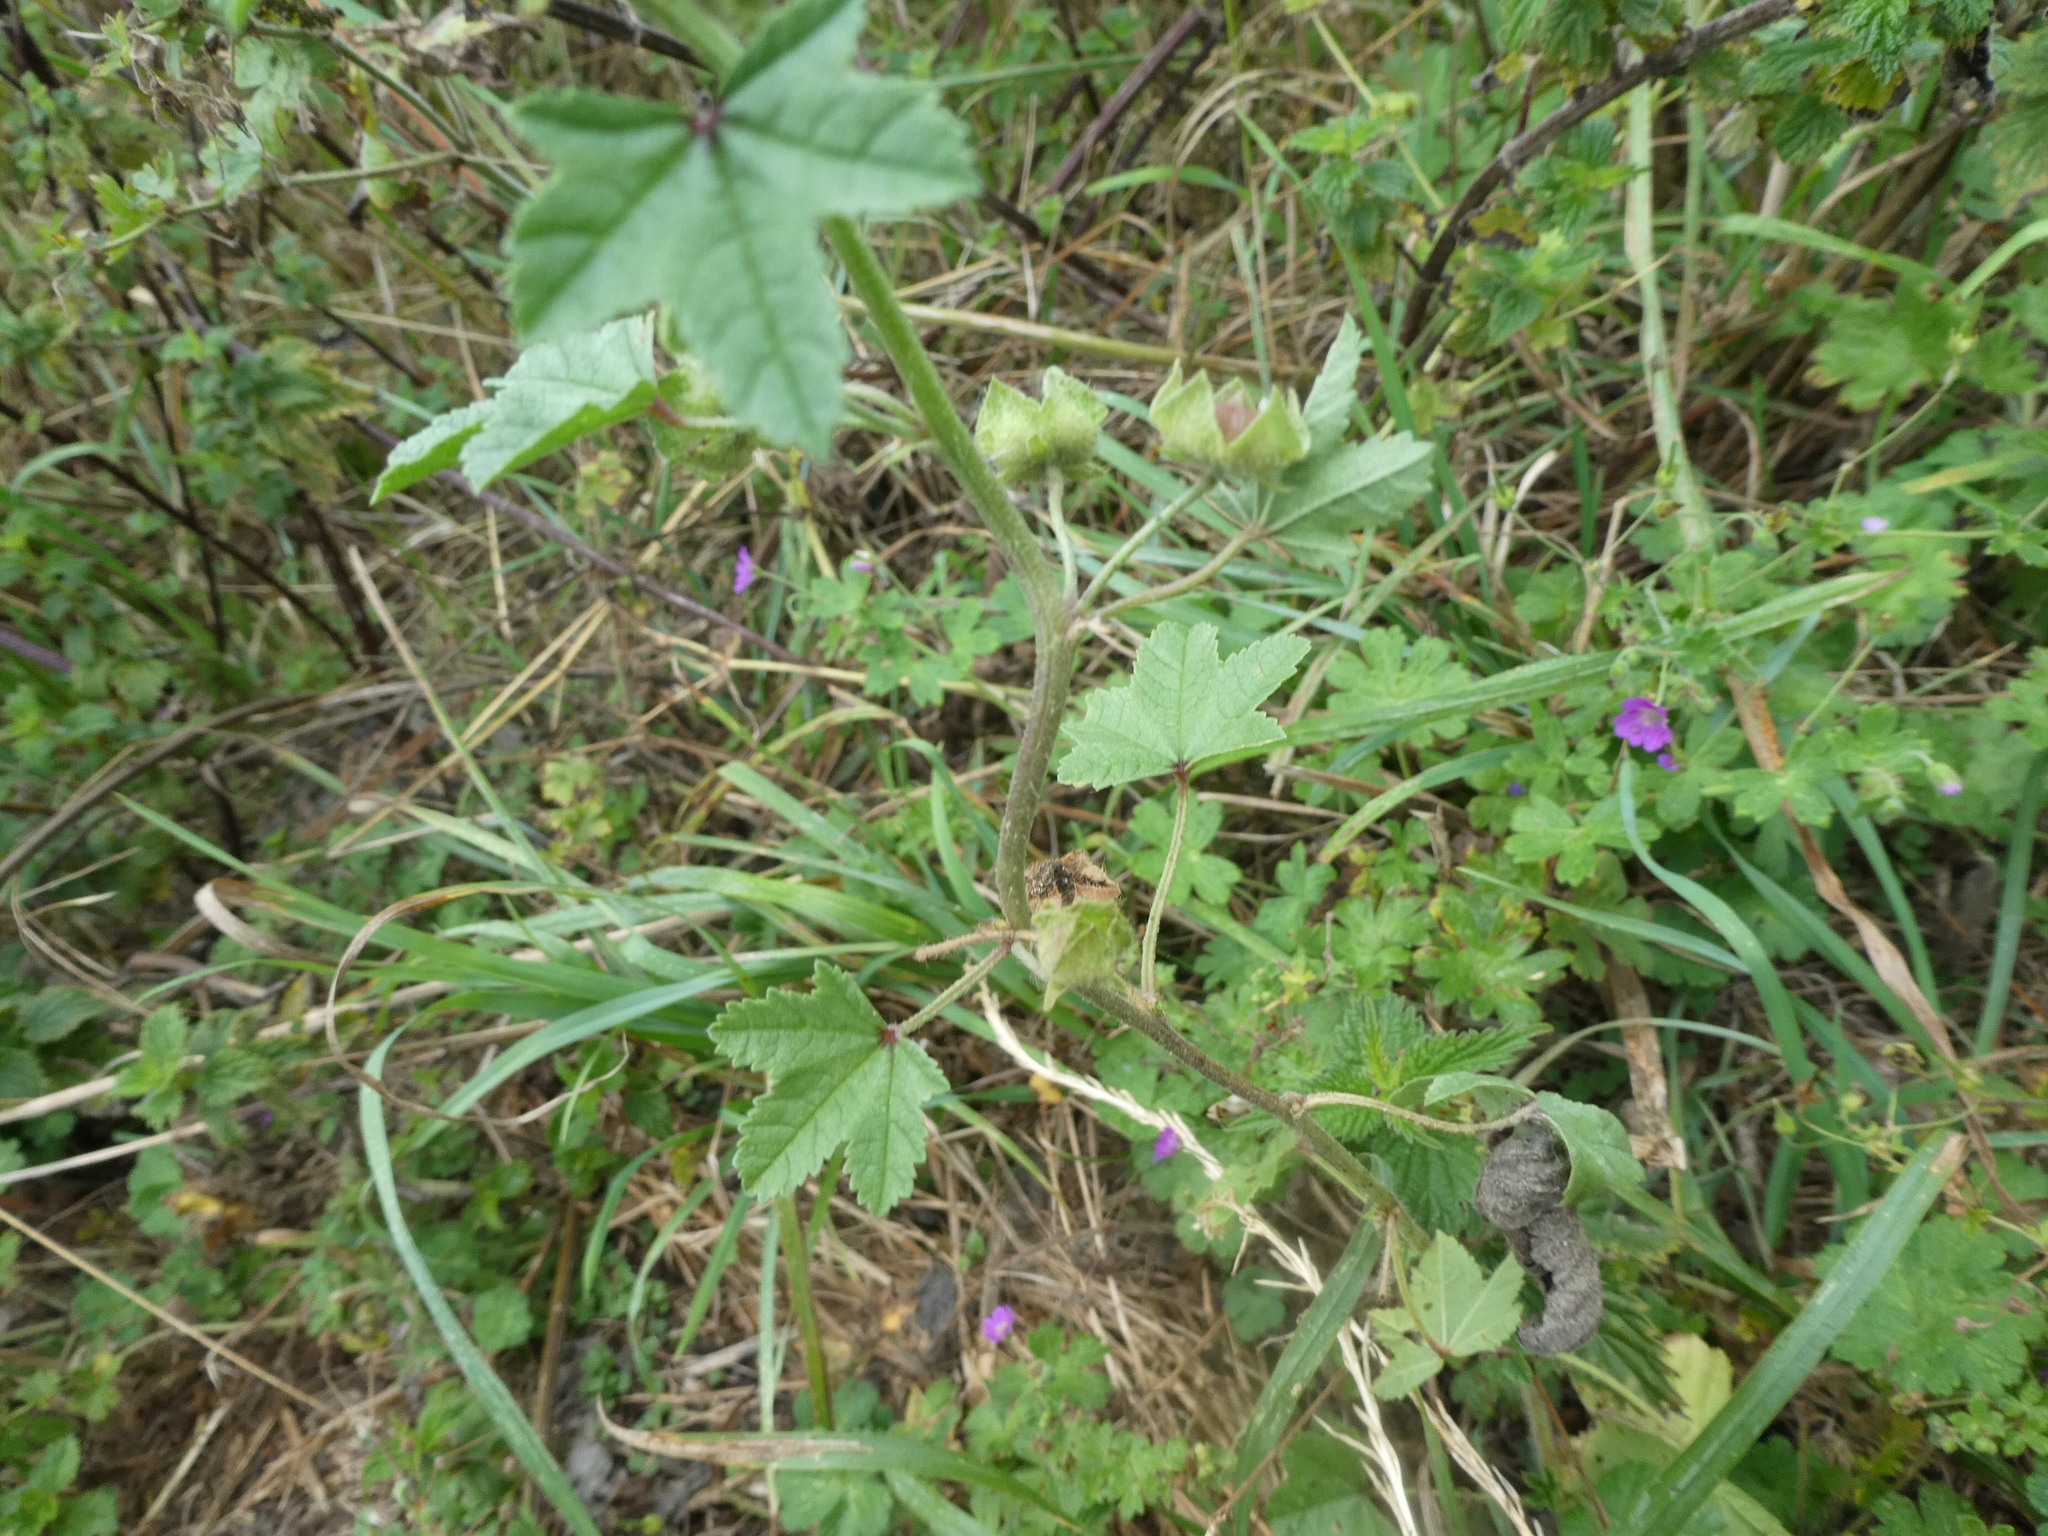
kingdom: Plantae
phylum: Tracheophyta
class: Magnoliopsida
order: Malvales
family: Malvaceae
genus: Malva
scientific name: Malva sylvestris
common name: Common mallow
